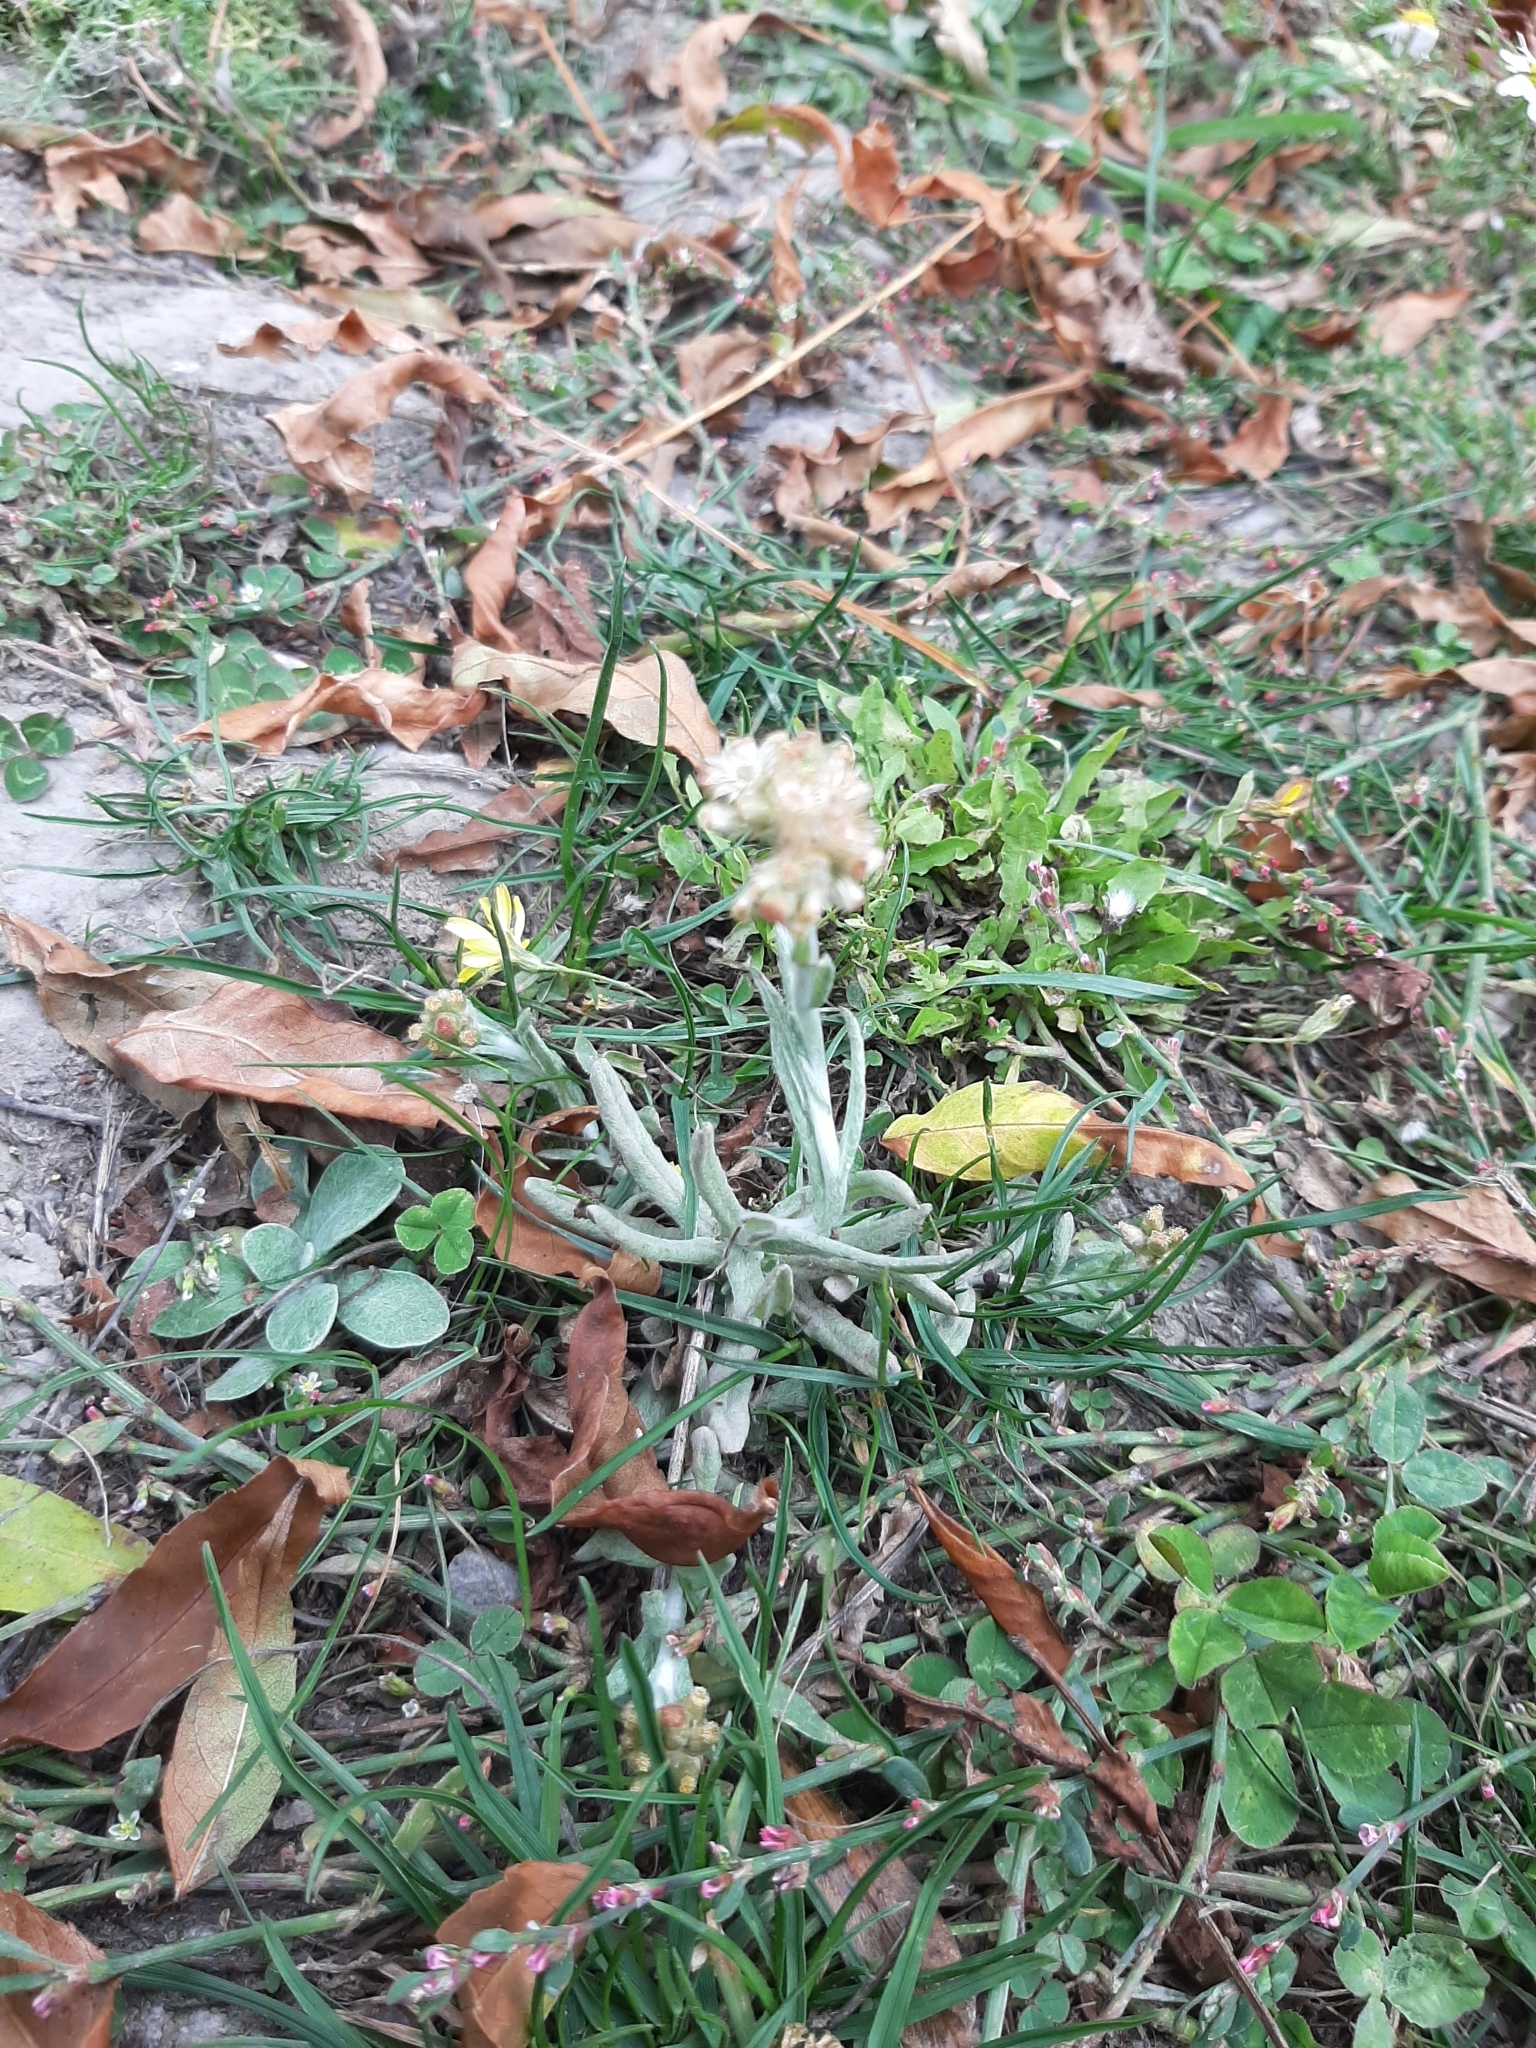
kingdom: Plantae
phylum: Tracheophyta
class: Magnoliopsida
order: Asterales
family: Asteraceae
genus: Helichrysum
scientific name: Helichrysum luteoalbum
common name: Daisy
